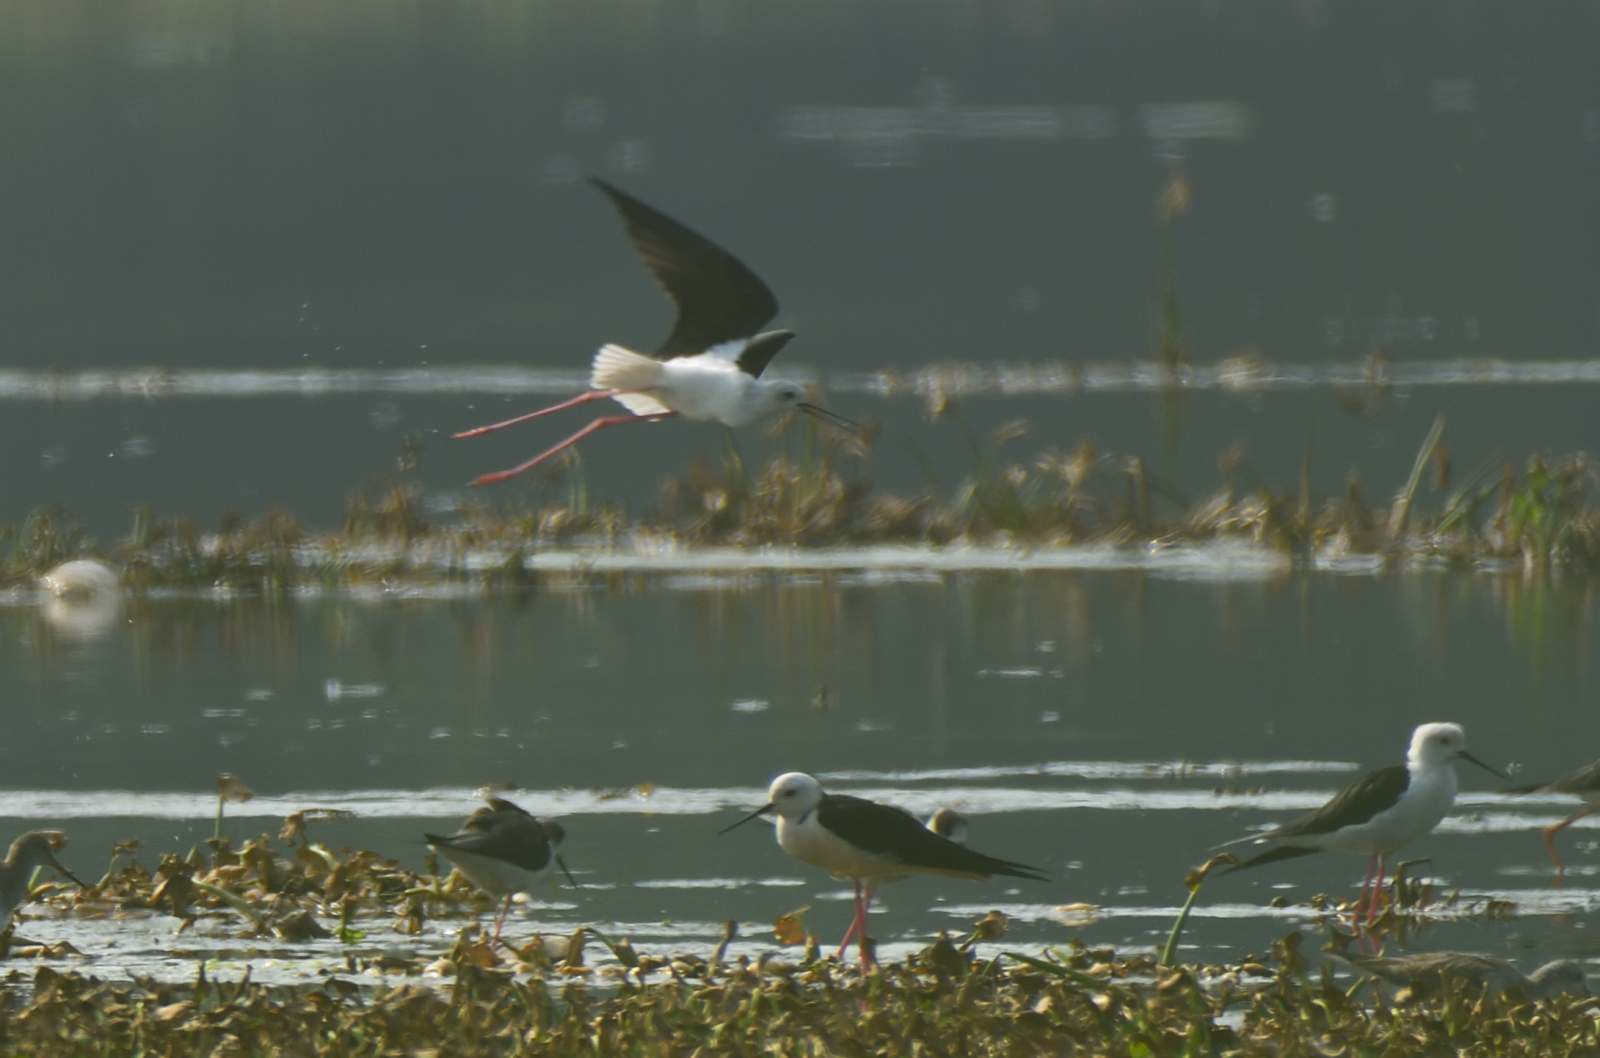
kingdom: Animalia
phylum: Chordata
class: Aves
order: Charadriiformes
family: Recurvirostridae
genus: Himantopus
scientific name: Himantopus himantopus
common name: Black-winged stilt
